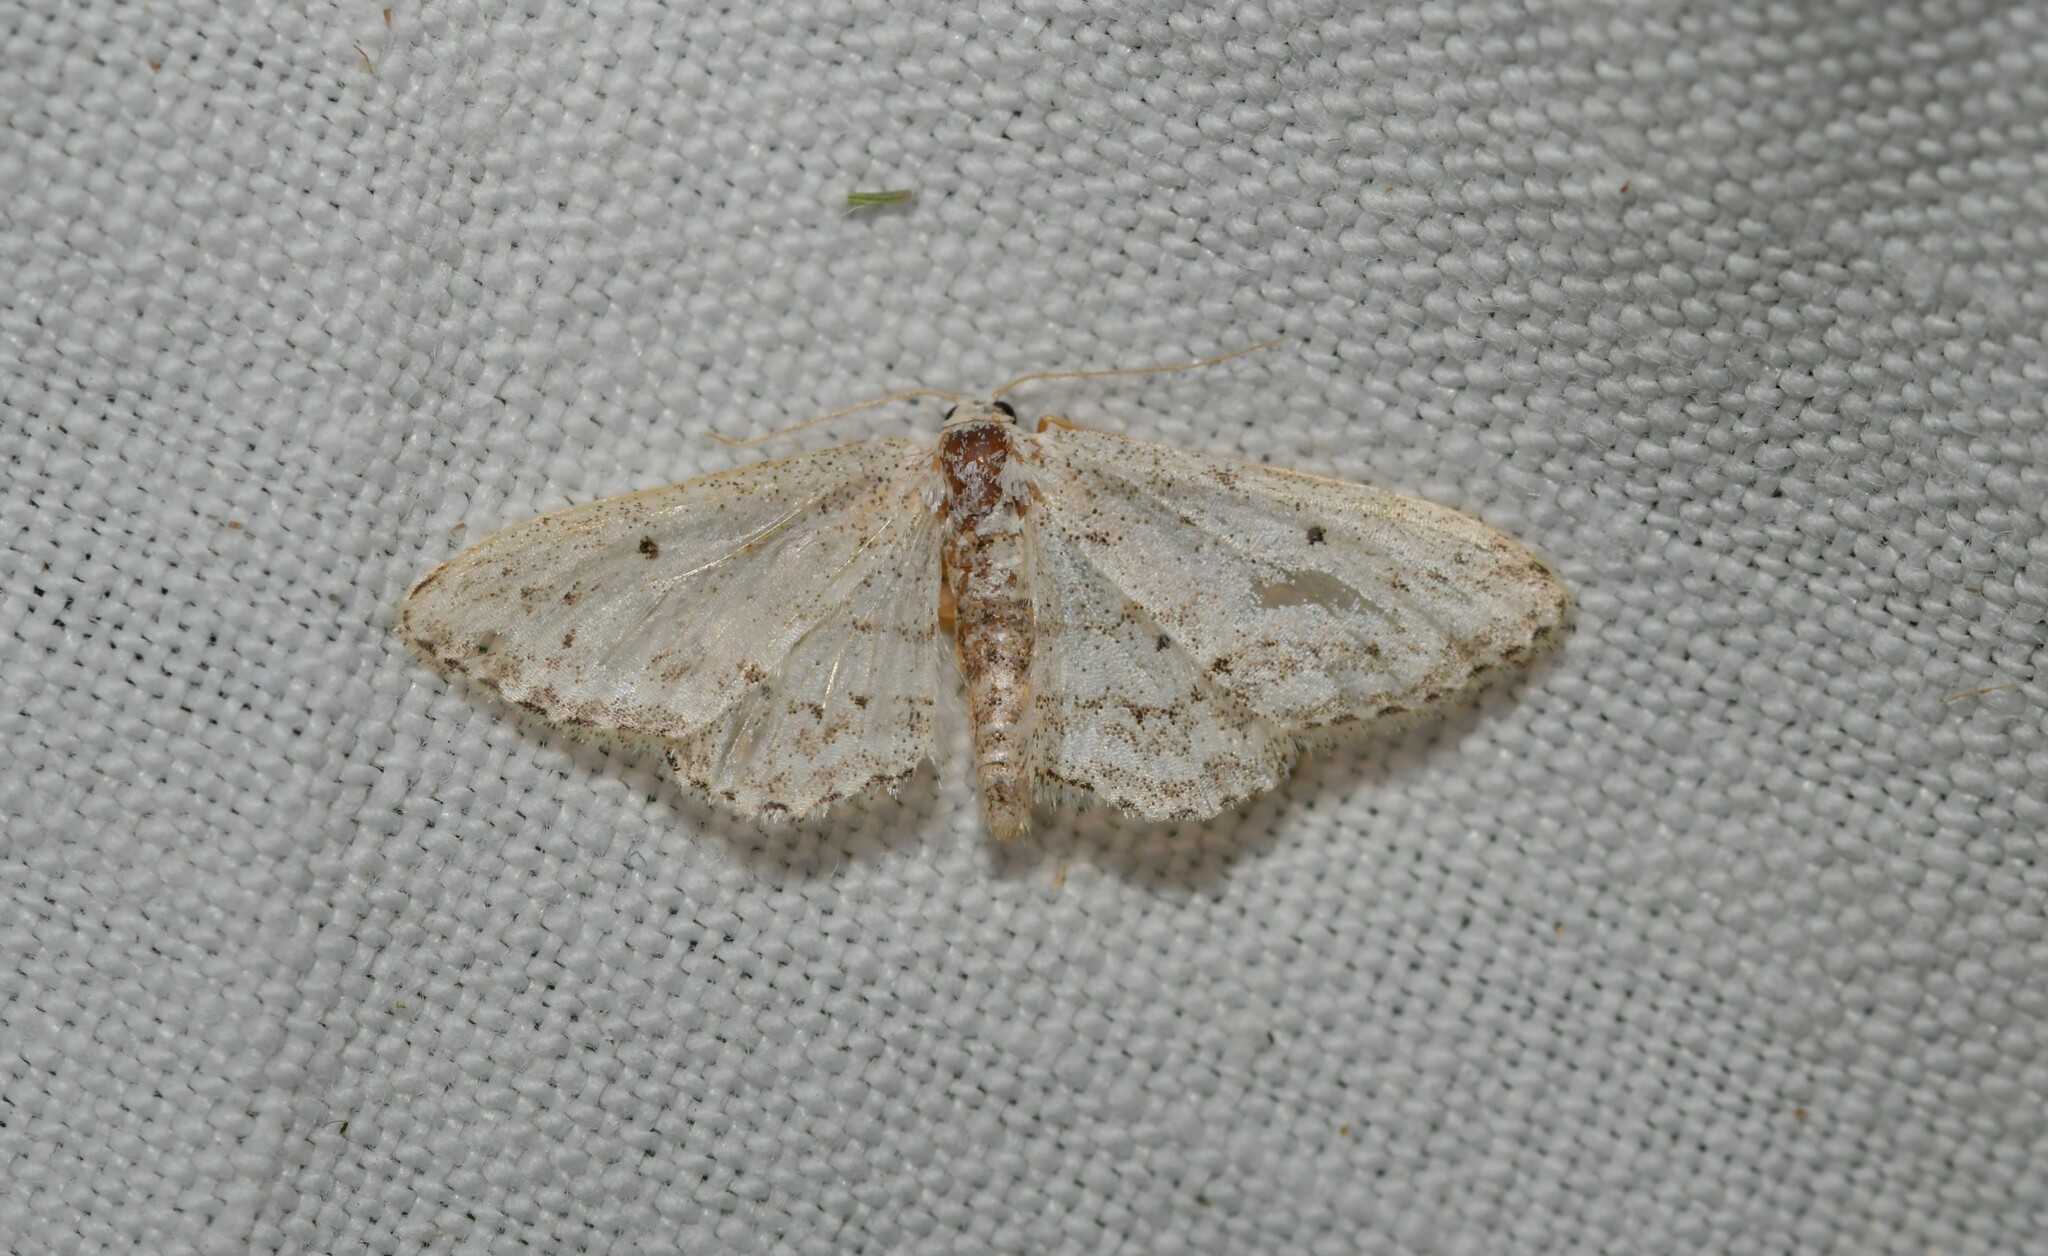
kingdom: Animalia
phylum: Arthropoda
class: Insecta
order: Lepidoptera
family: Geometridae
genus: Idaea
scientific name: Idaea incisaria
